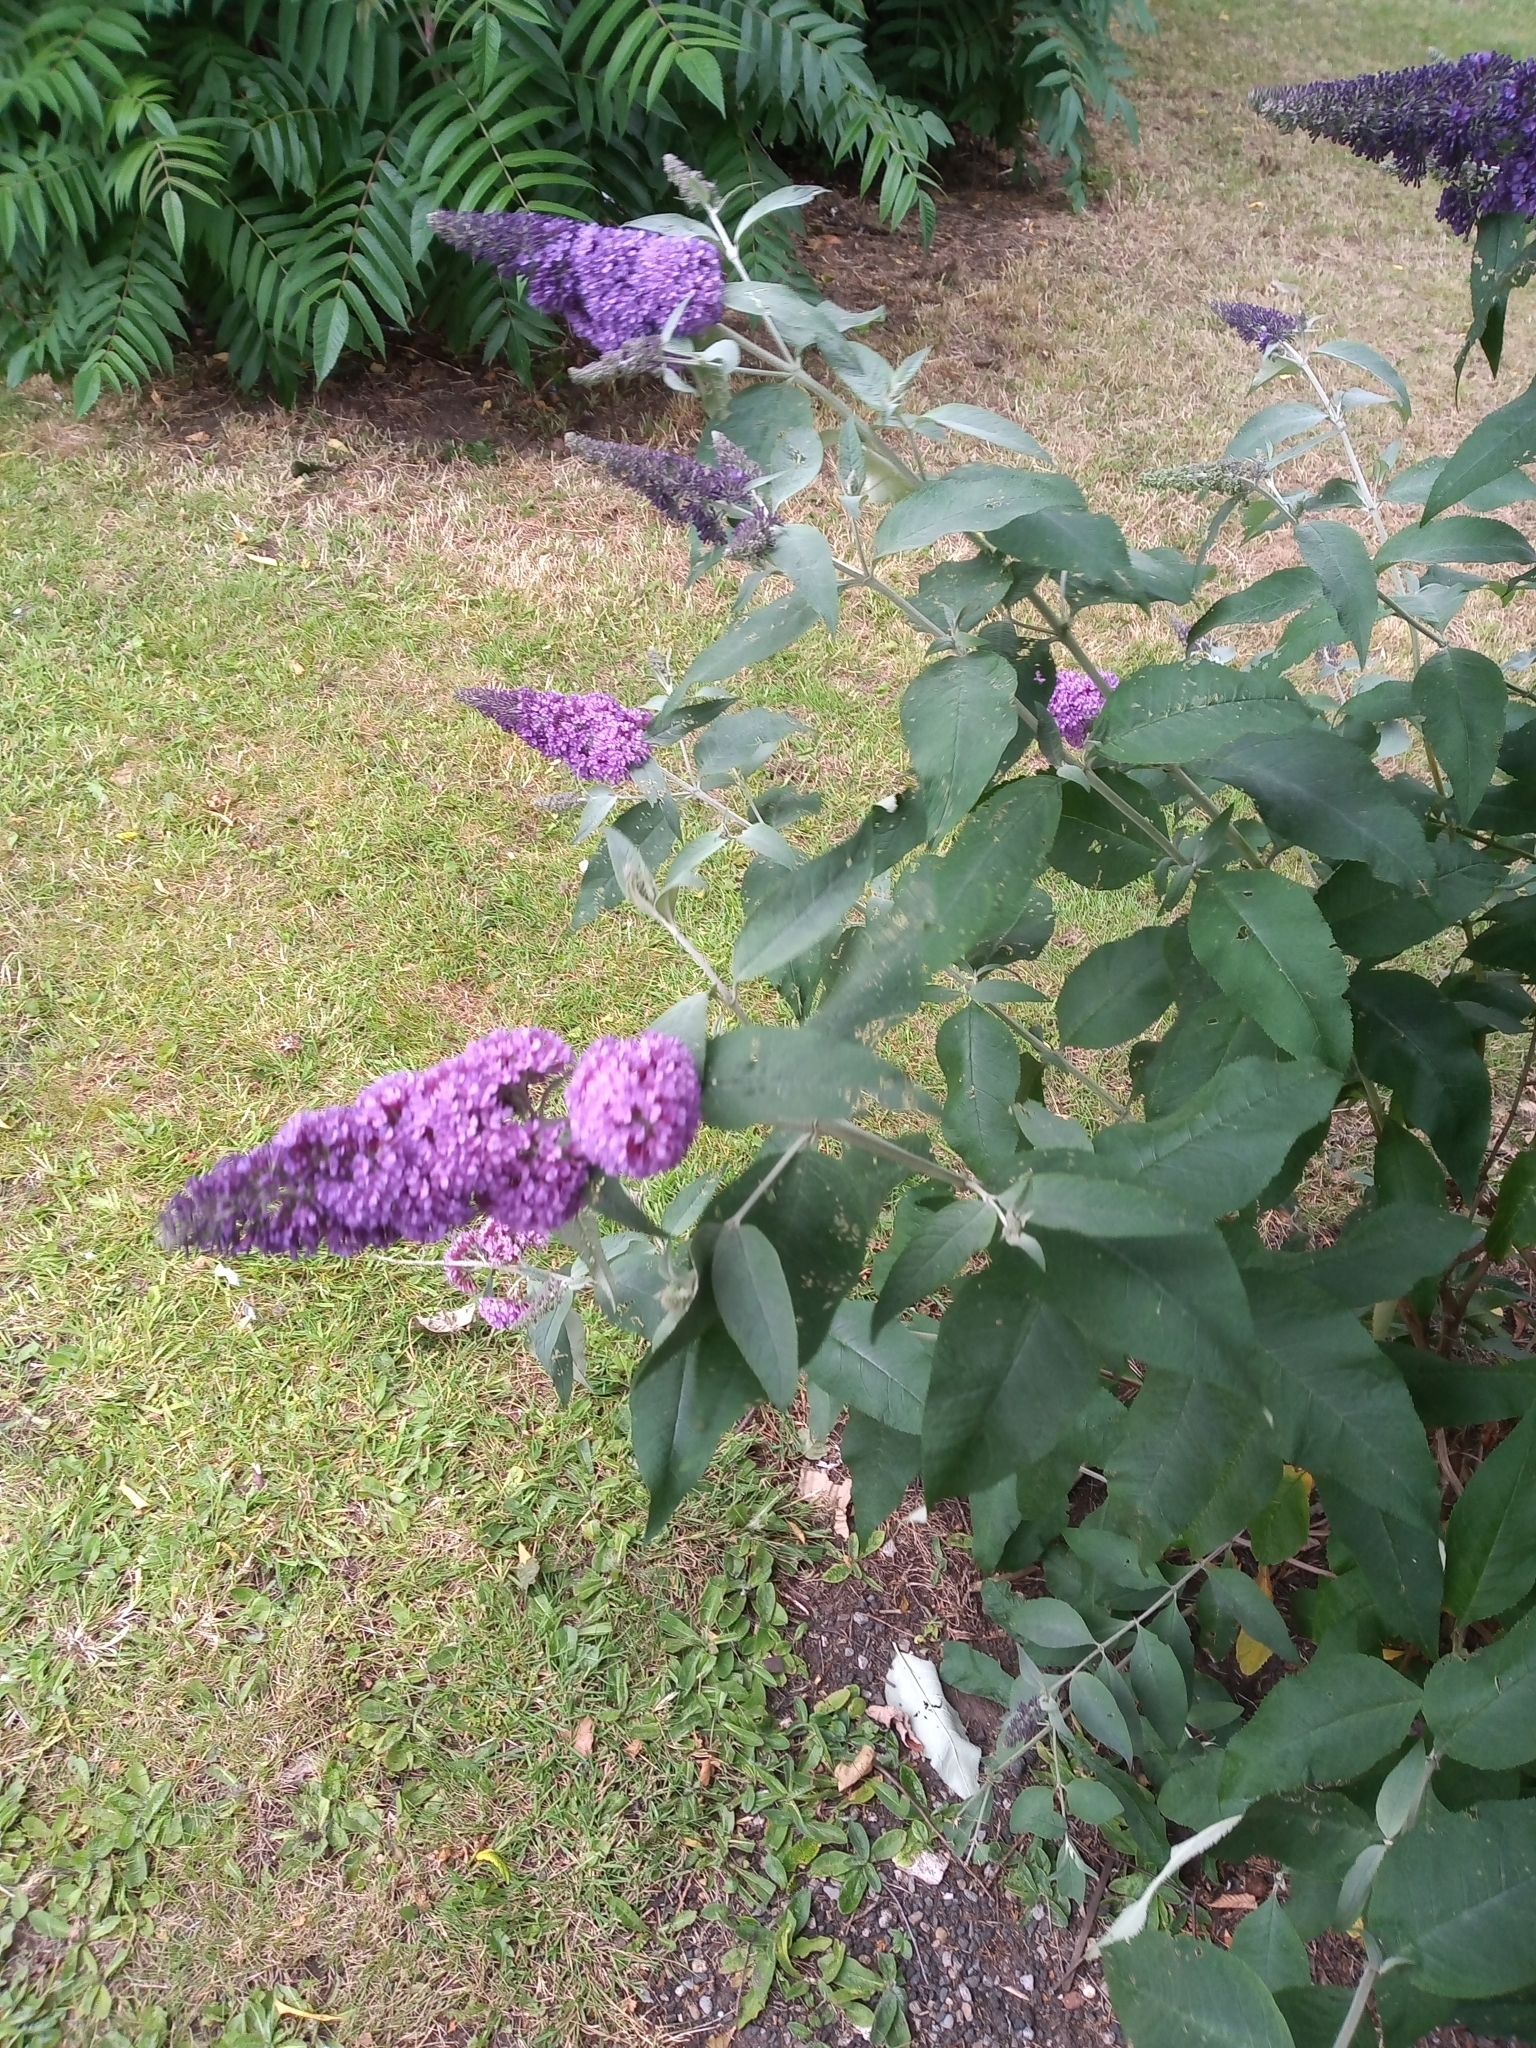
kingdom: Plantae
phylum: Tracheophyta
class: Magnoliopsida
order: Lamiales
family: Scrophulariaceae
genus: Buddleja
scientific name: Buddleja davidii
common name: Butterfly-bush
